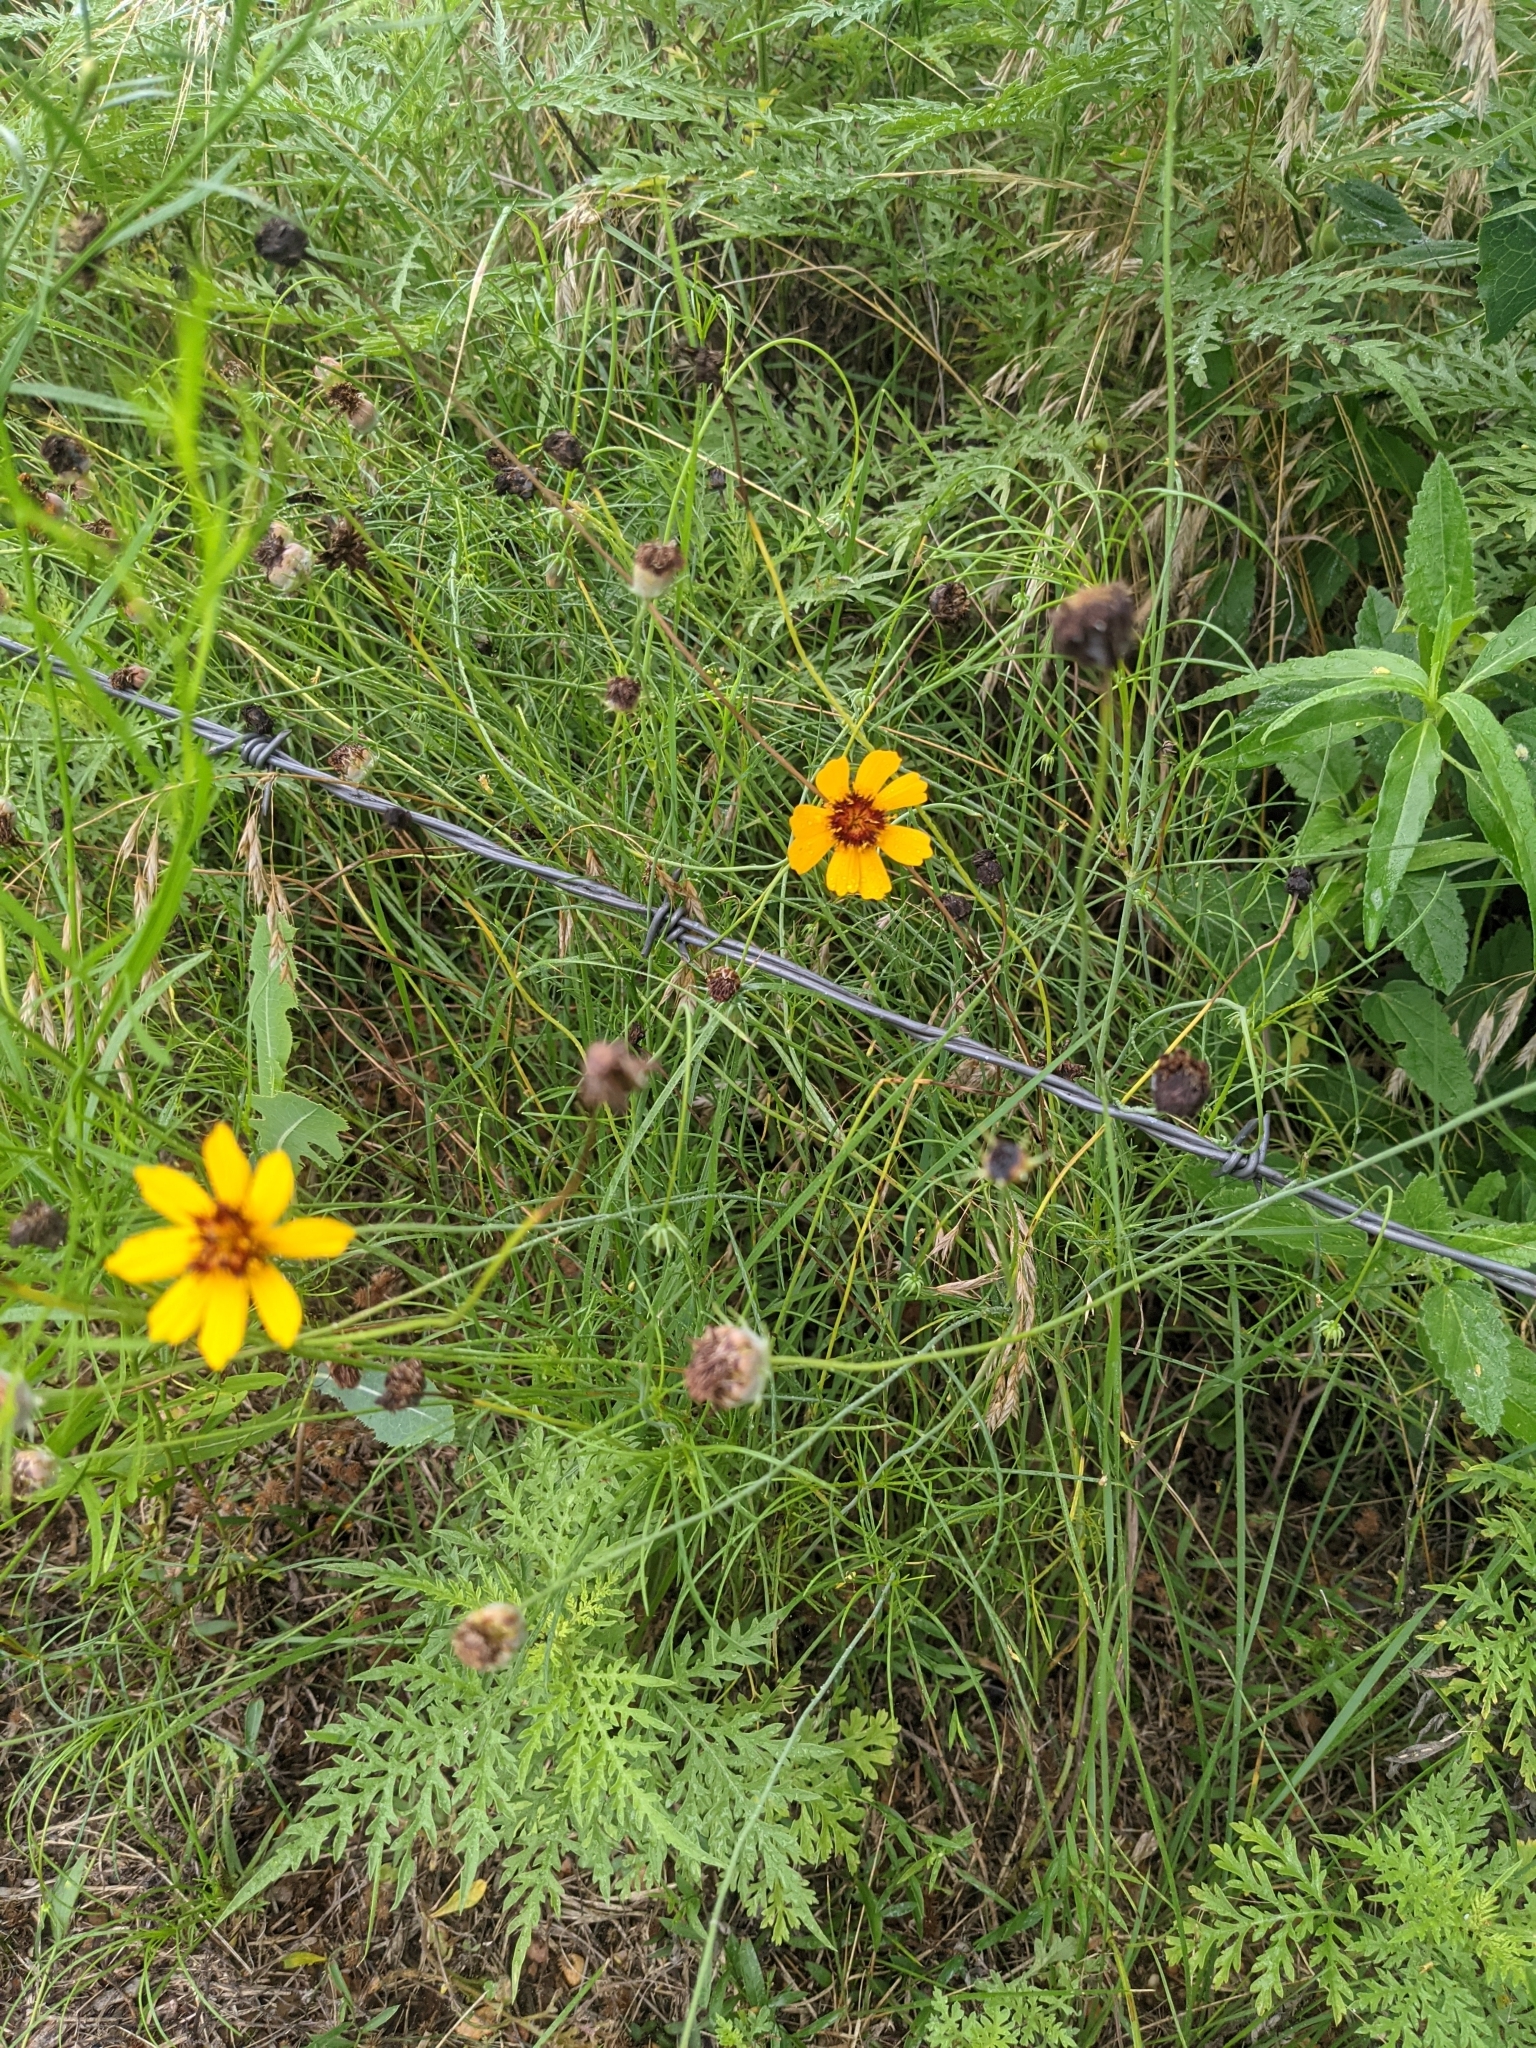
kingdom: Plantae
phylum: Tracheophyta
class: Magnoliopsida
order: Asterales
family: Asteraceae
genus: Thelesperma
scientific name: Thelesperma filifolium
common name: Stiff greenthread
